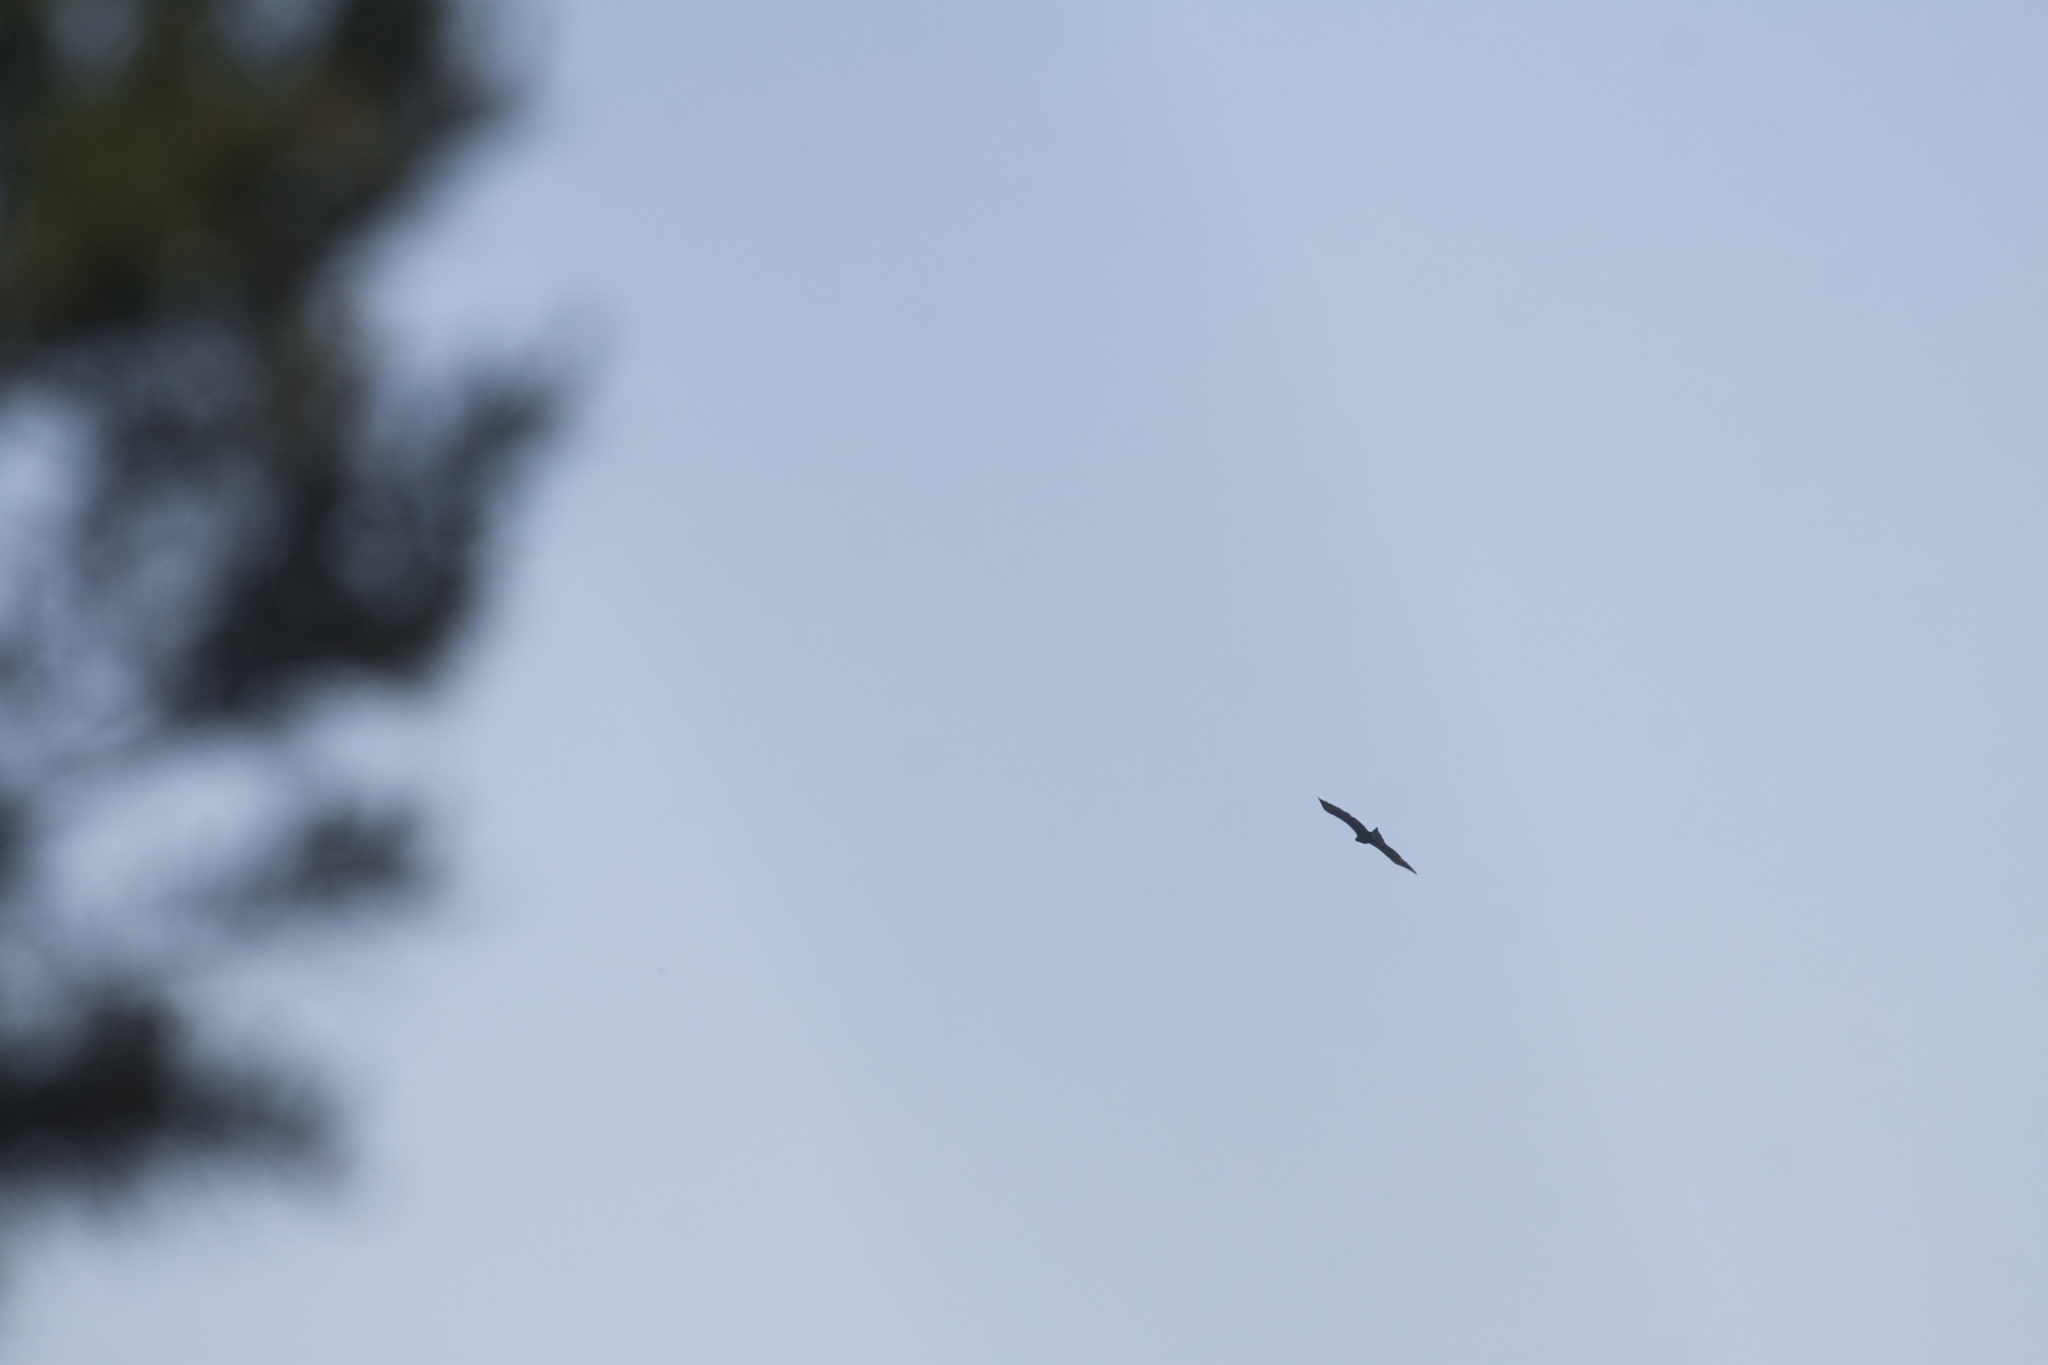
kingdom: Animalia
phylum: Chordata
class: Aves
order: Accipitriformes
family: Accipitridae
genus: Milvus
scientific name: Milvus migrans
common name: Black kite
